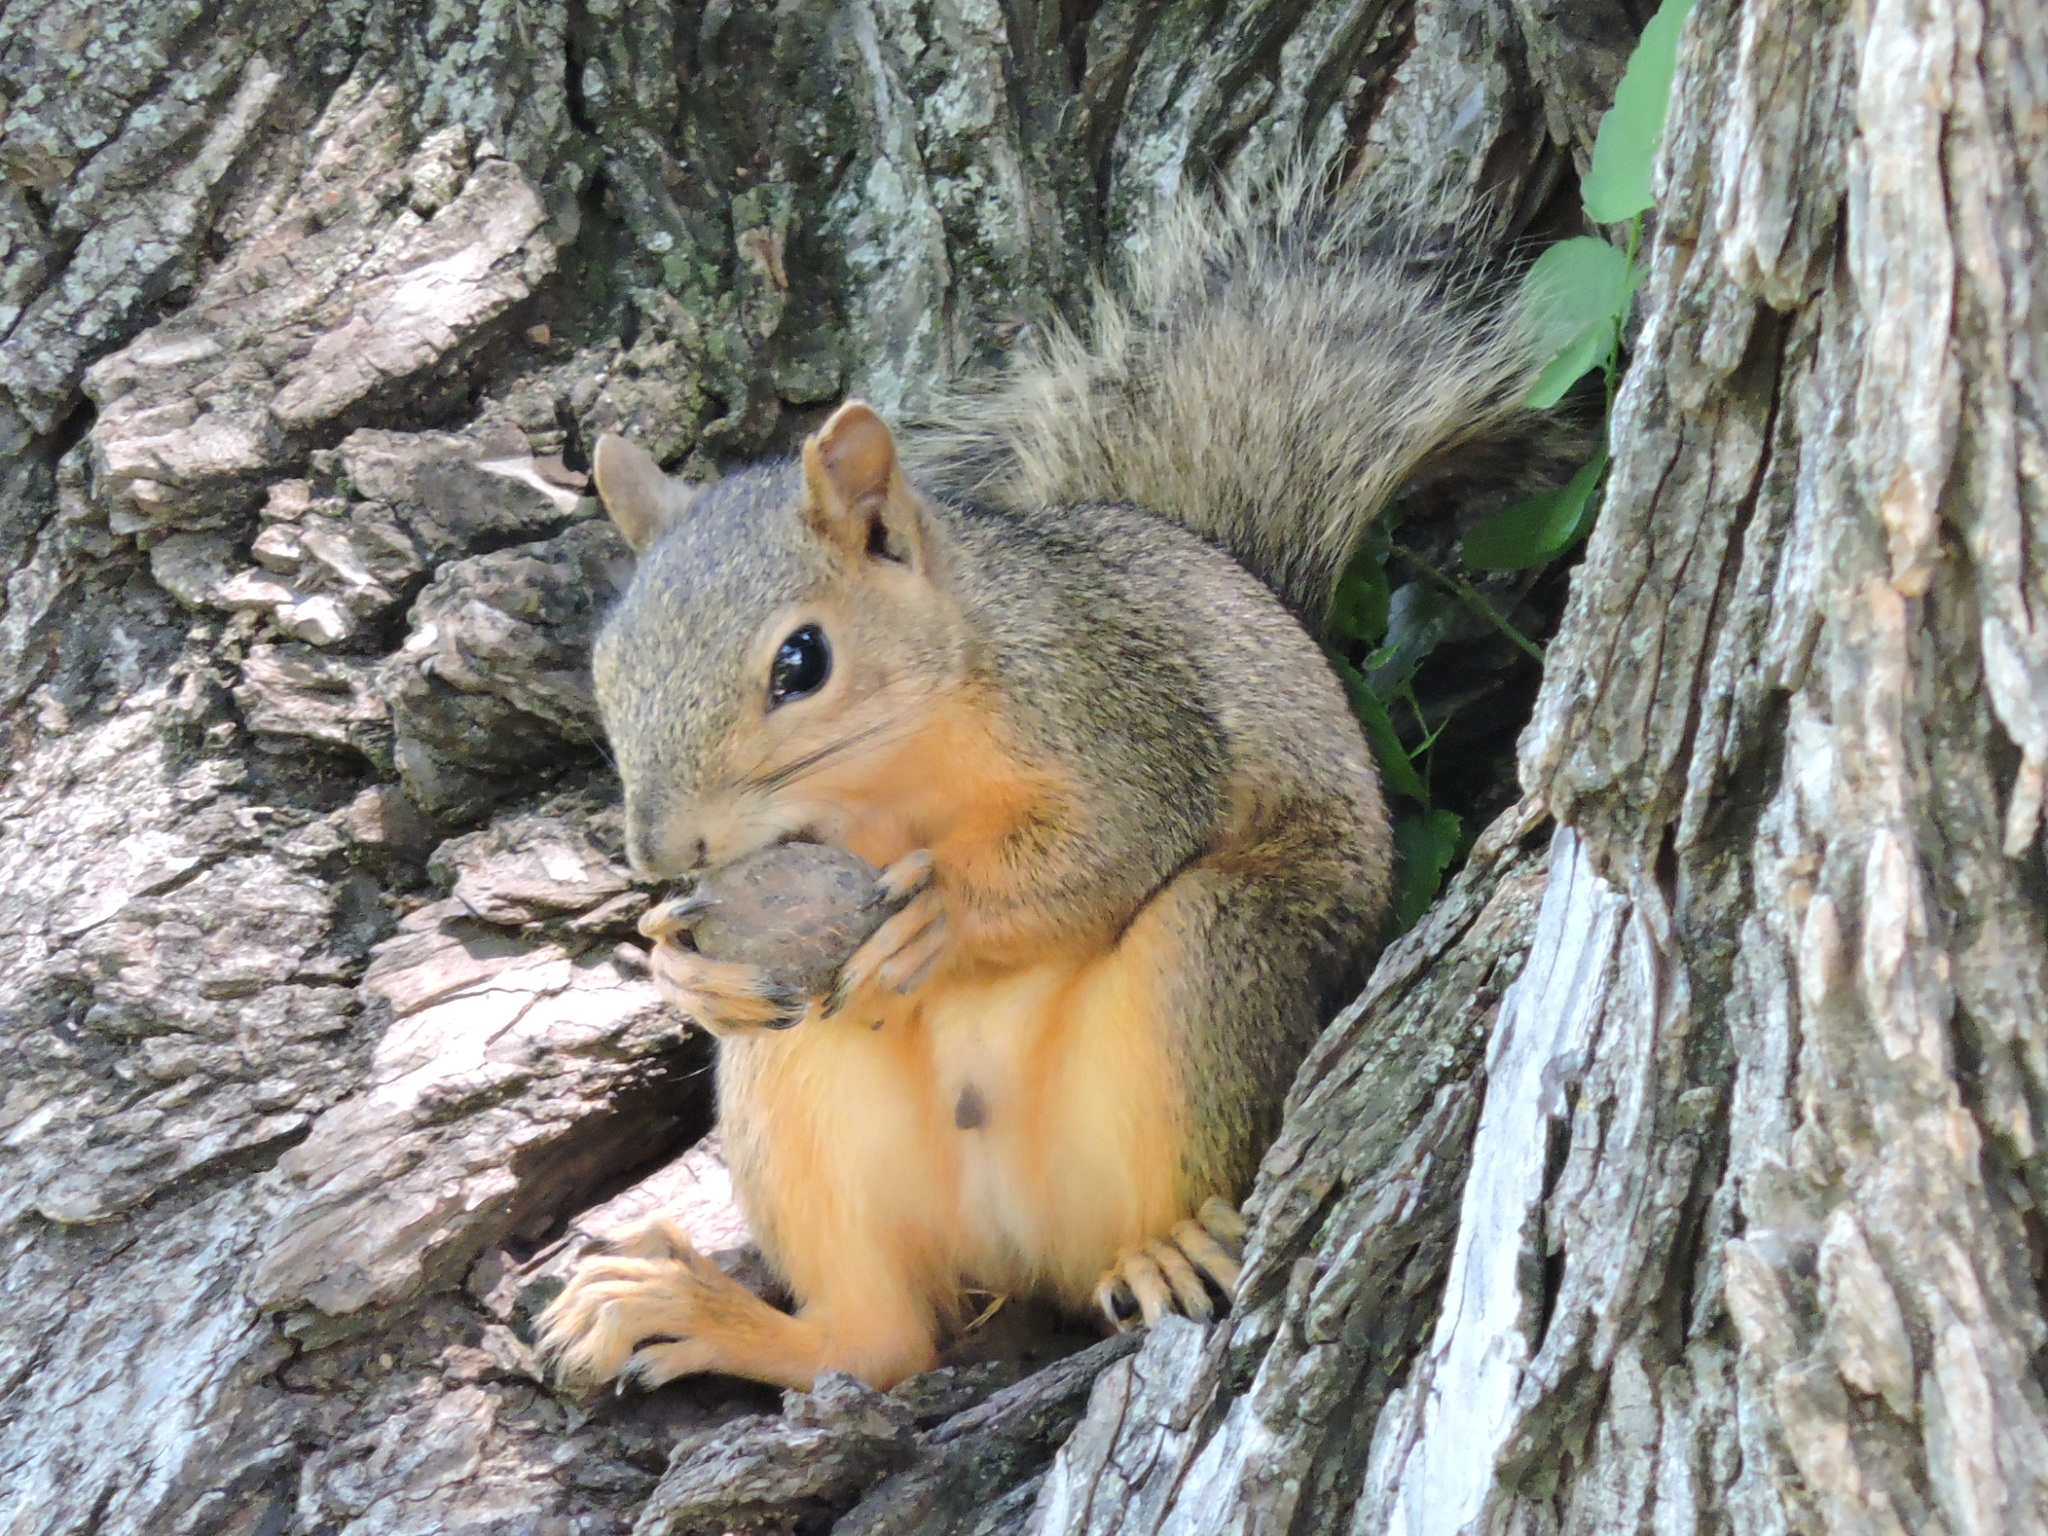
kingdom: Animalia
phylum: Chordata
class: Mammalia
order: Rodentia
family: Sciuridae
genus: Sciurus
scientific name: Sciurus niger
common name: Fox squirrel
